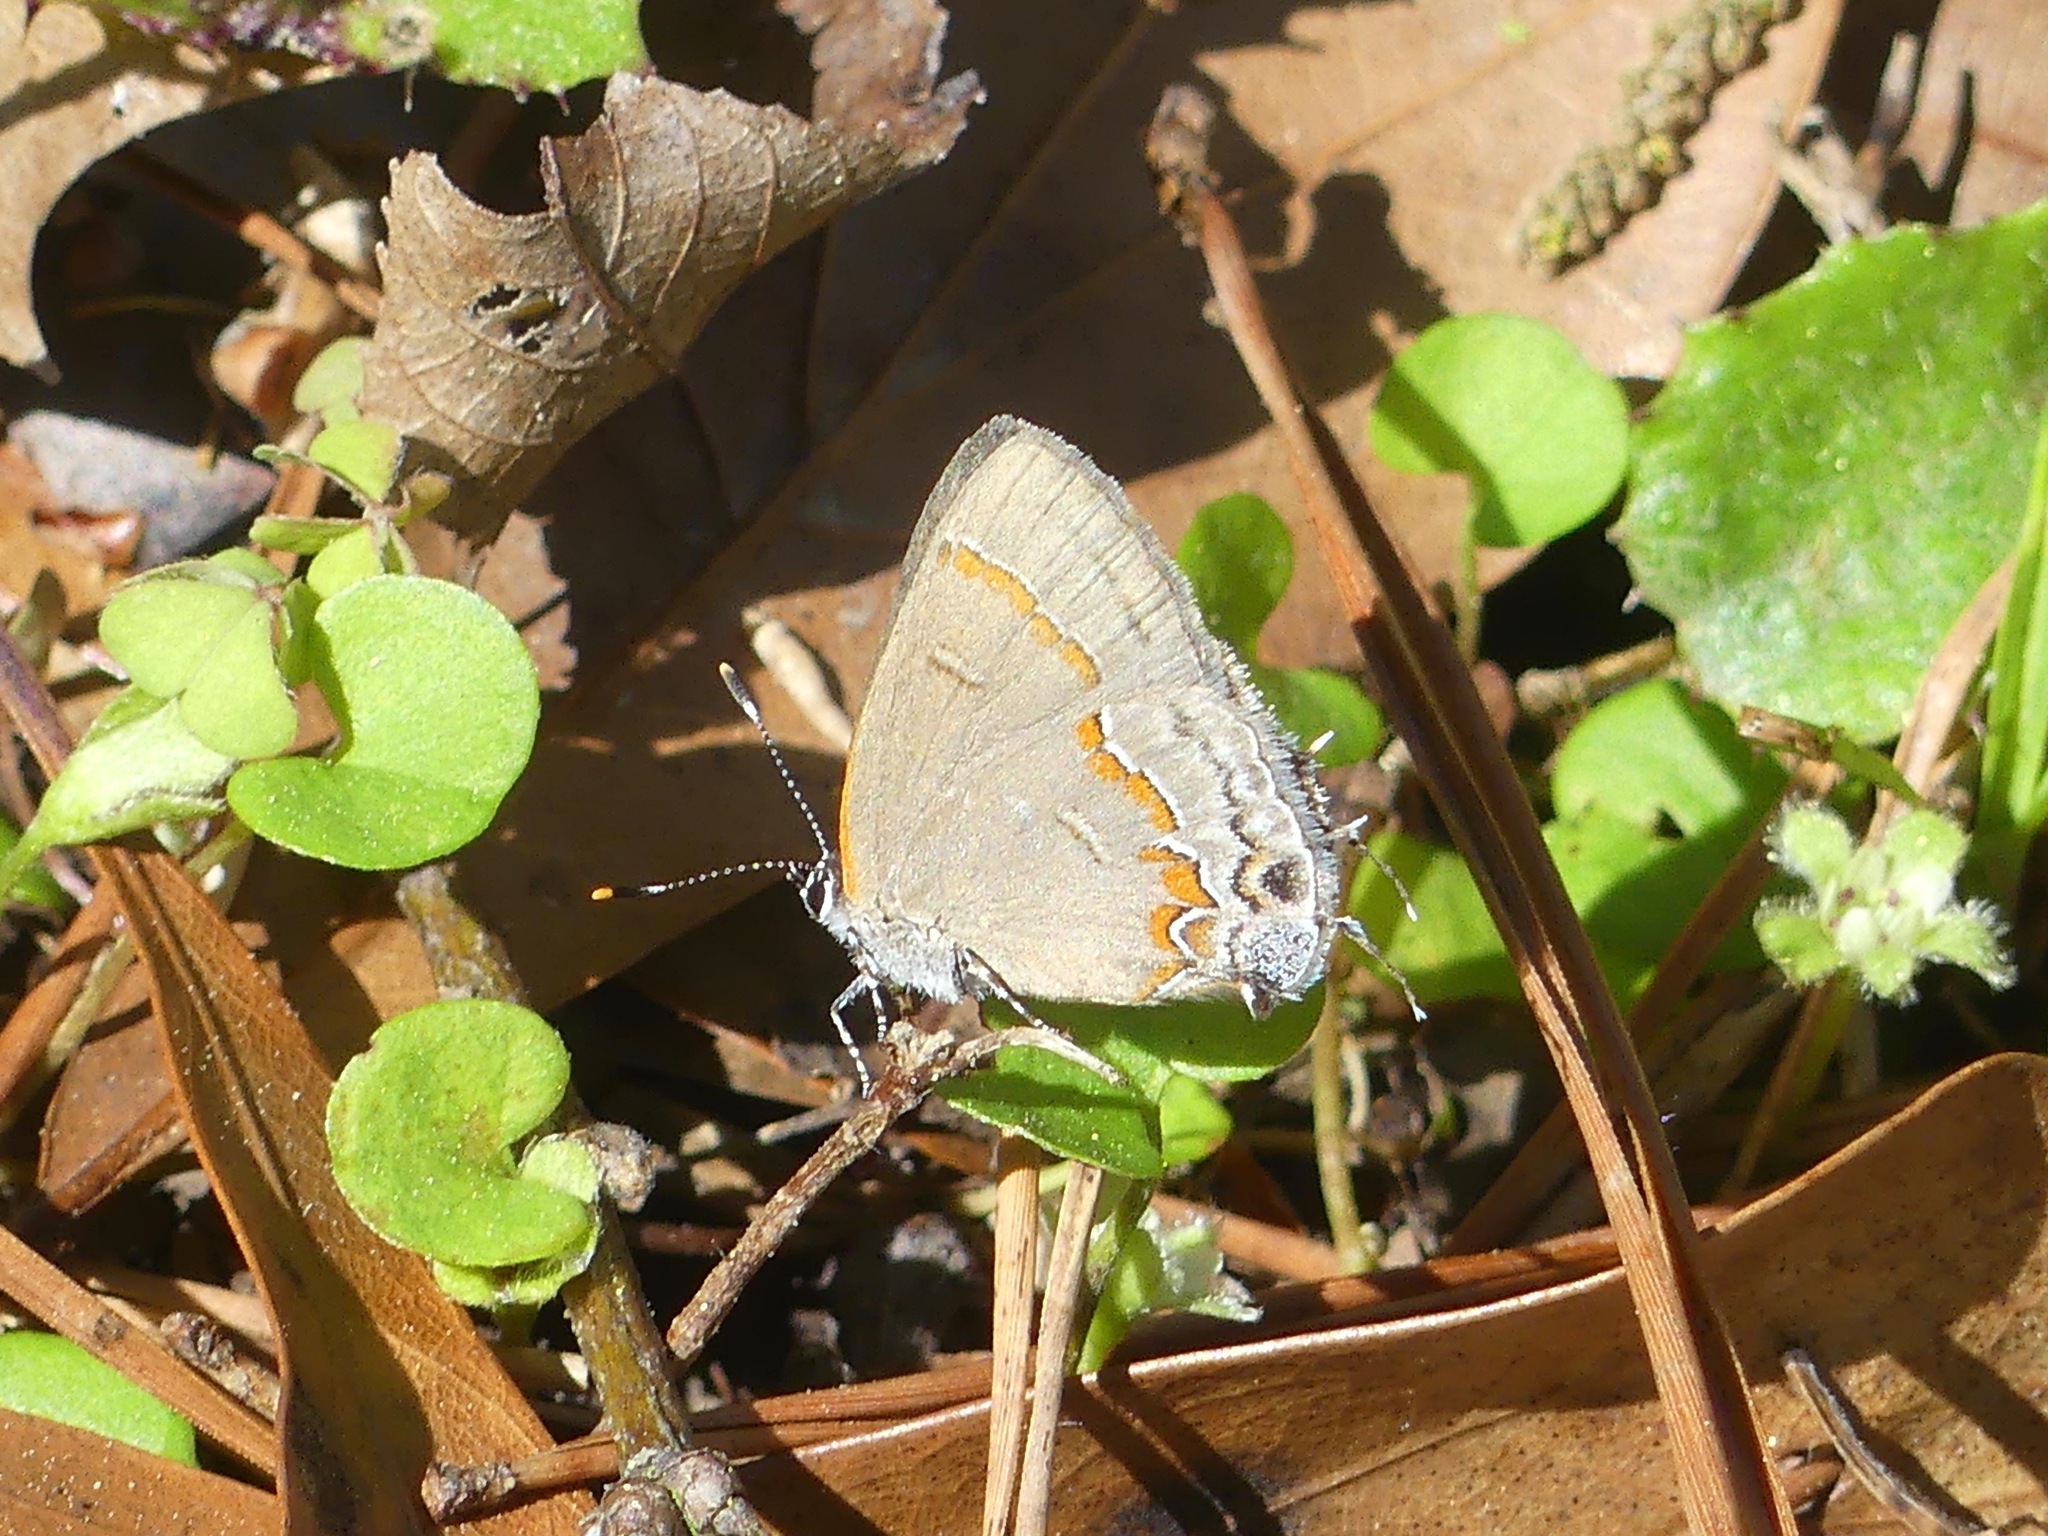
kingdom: Animalia
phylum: Arthropoda
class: Insecta
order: Lepidoptera
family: Lycaenidae
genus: Calycopis
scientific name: Calycopis cecrops
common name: Red-banded hairstreak
